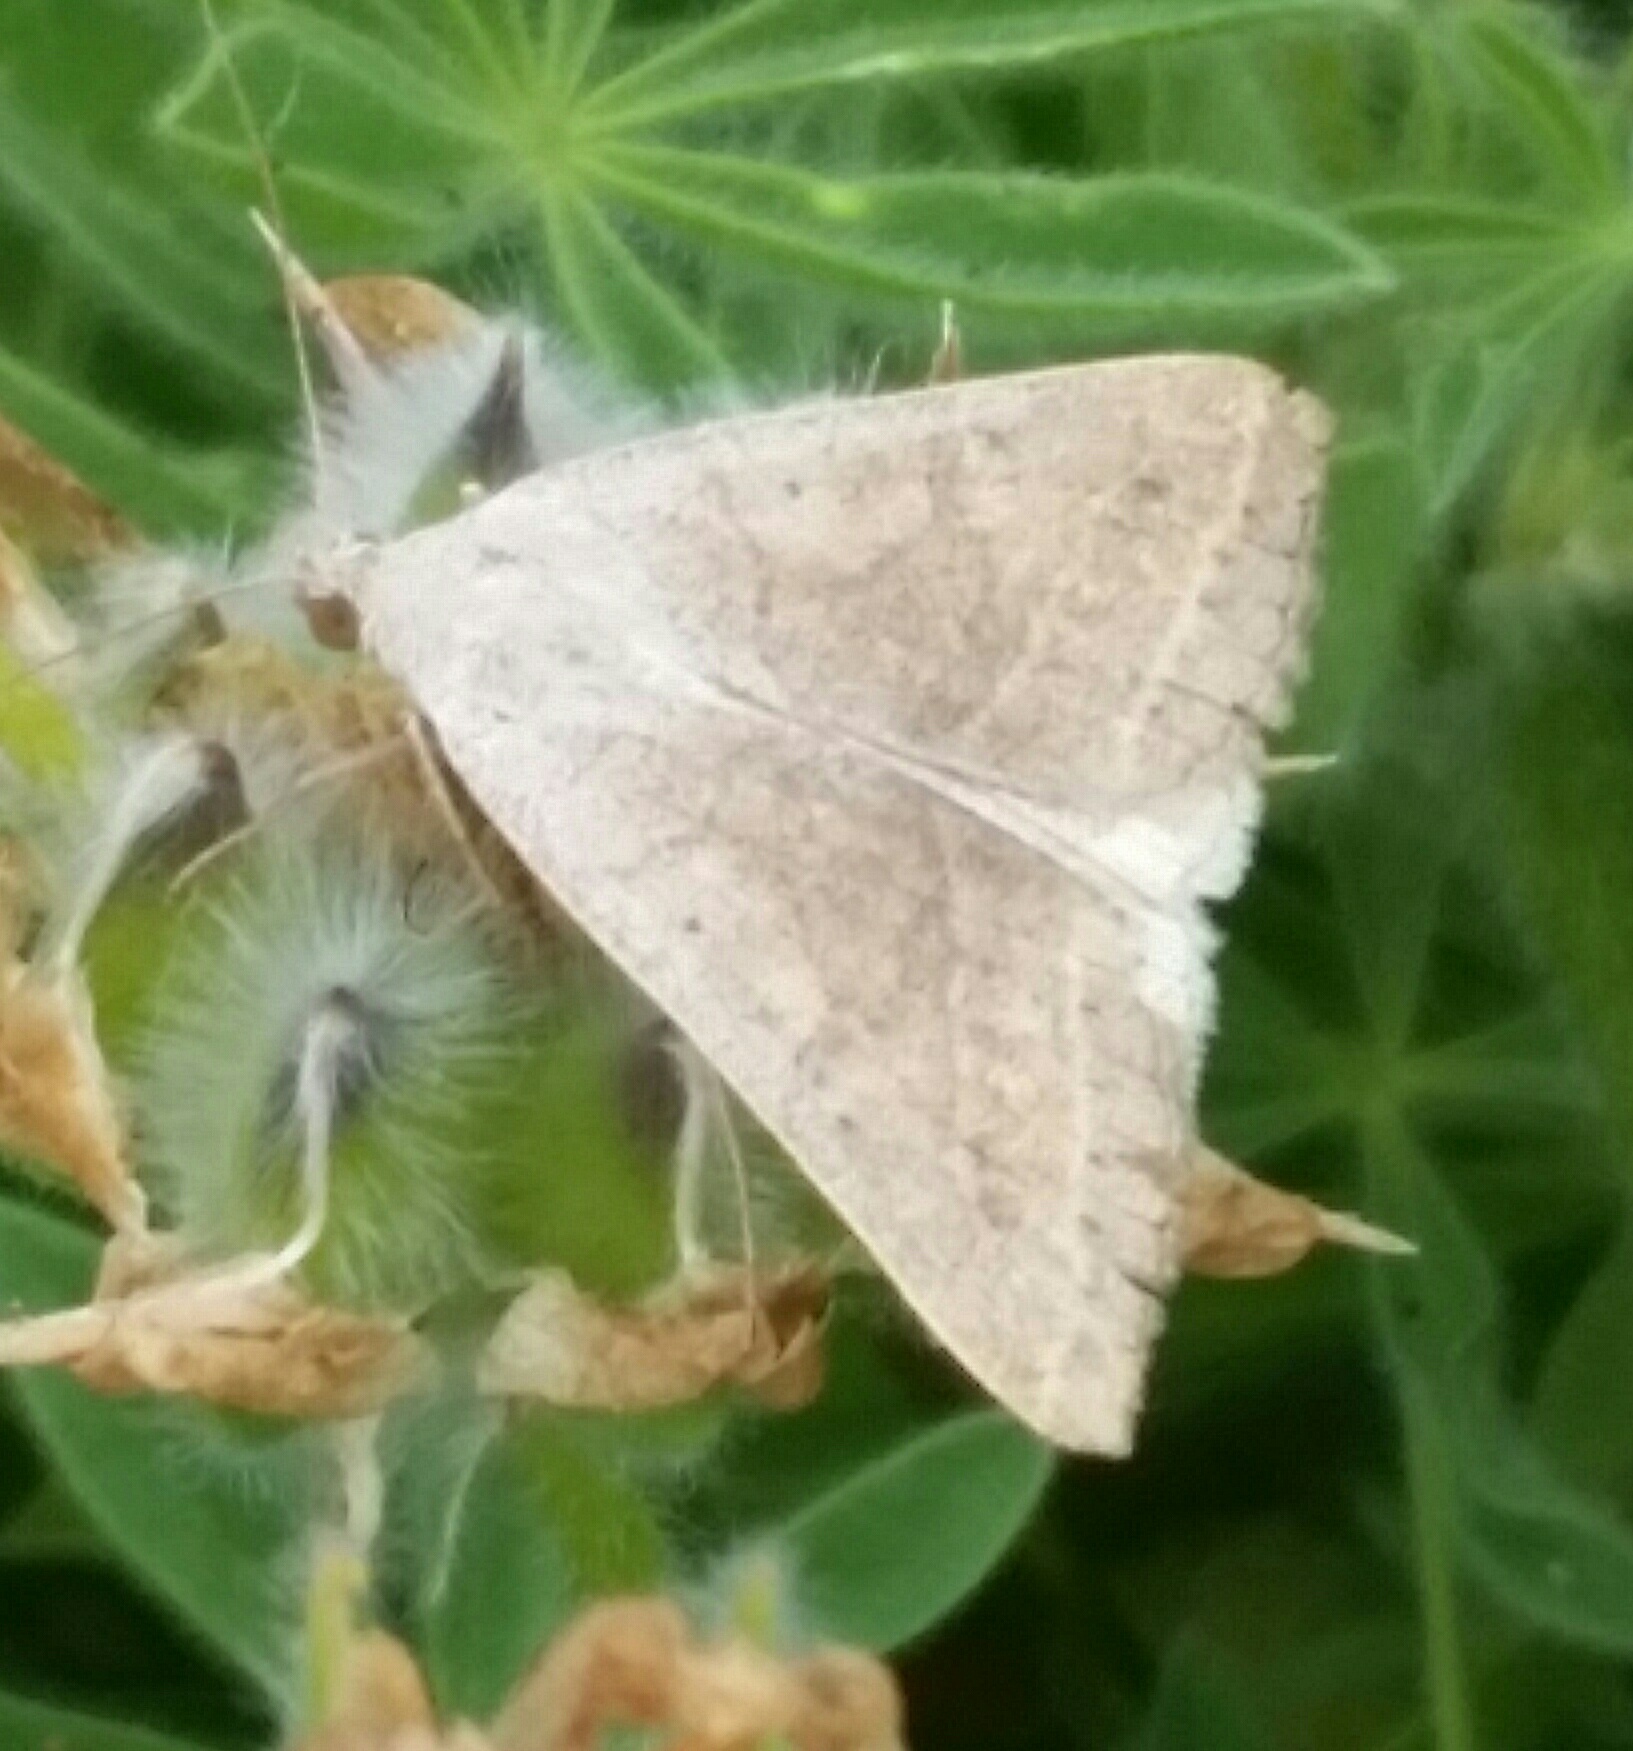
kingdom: Animalia
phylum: Arthropoda
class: Insecta
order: Lepidoptera
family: Erebidae
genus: Caenurgia
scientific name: Caenurgia togataria
